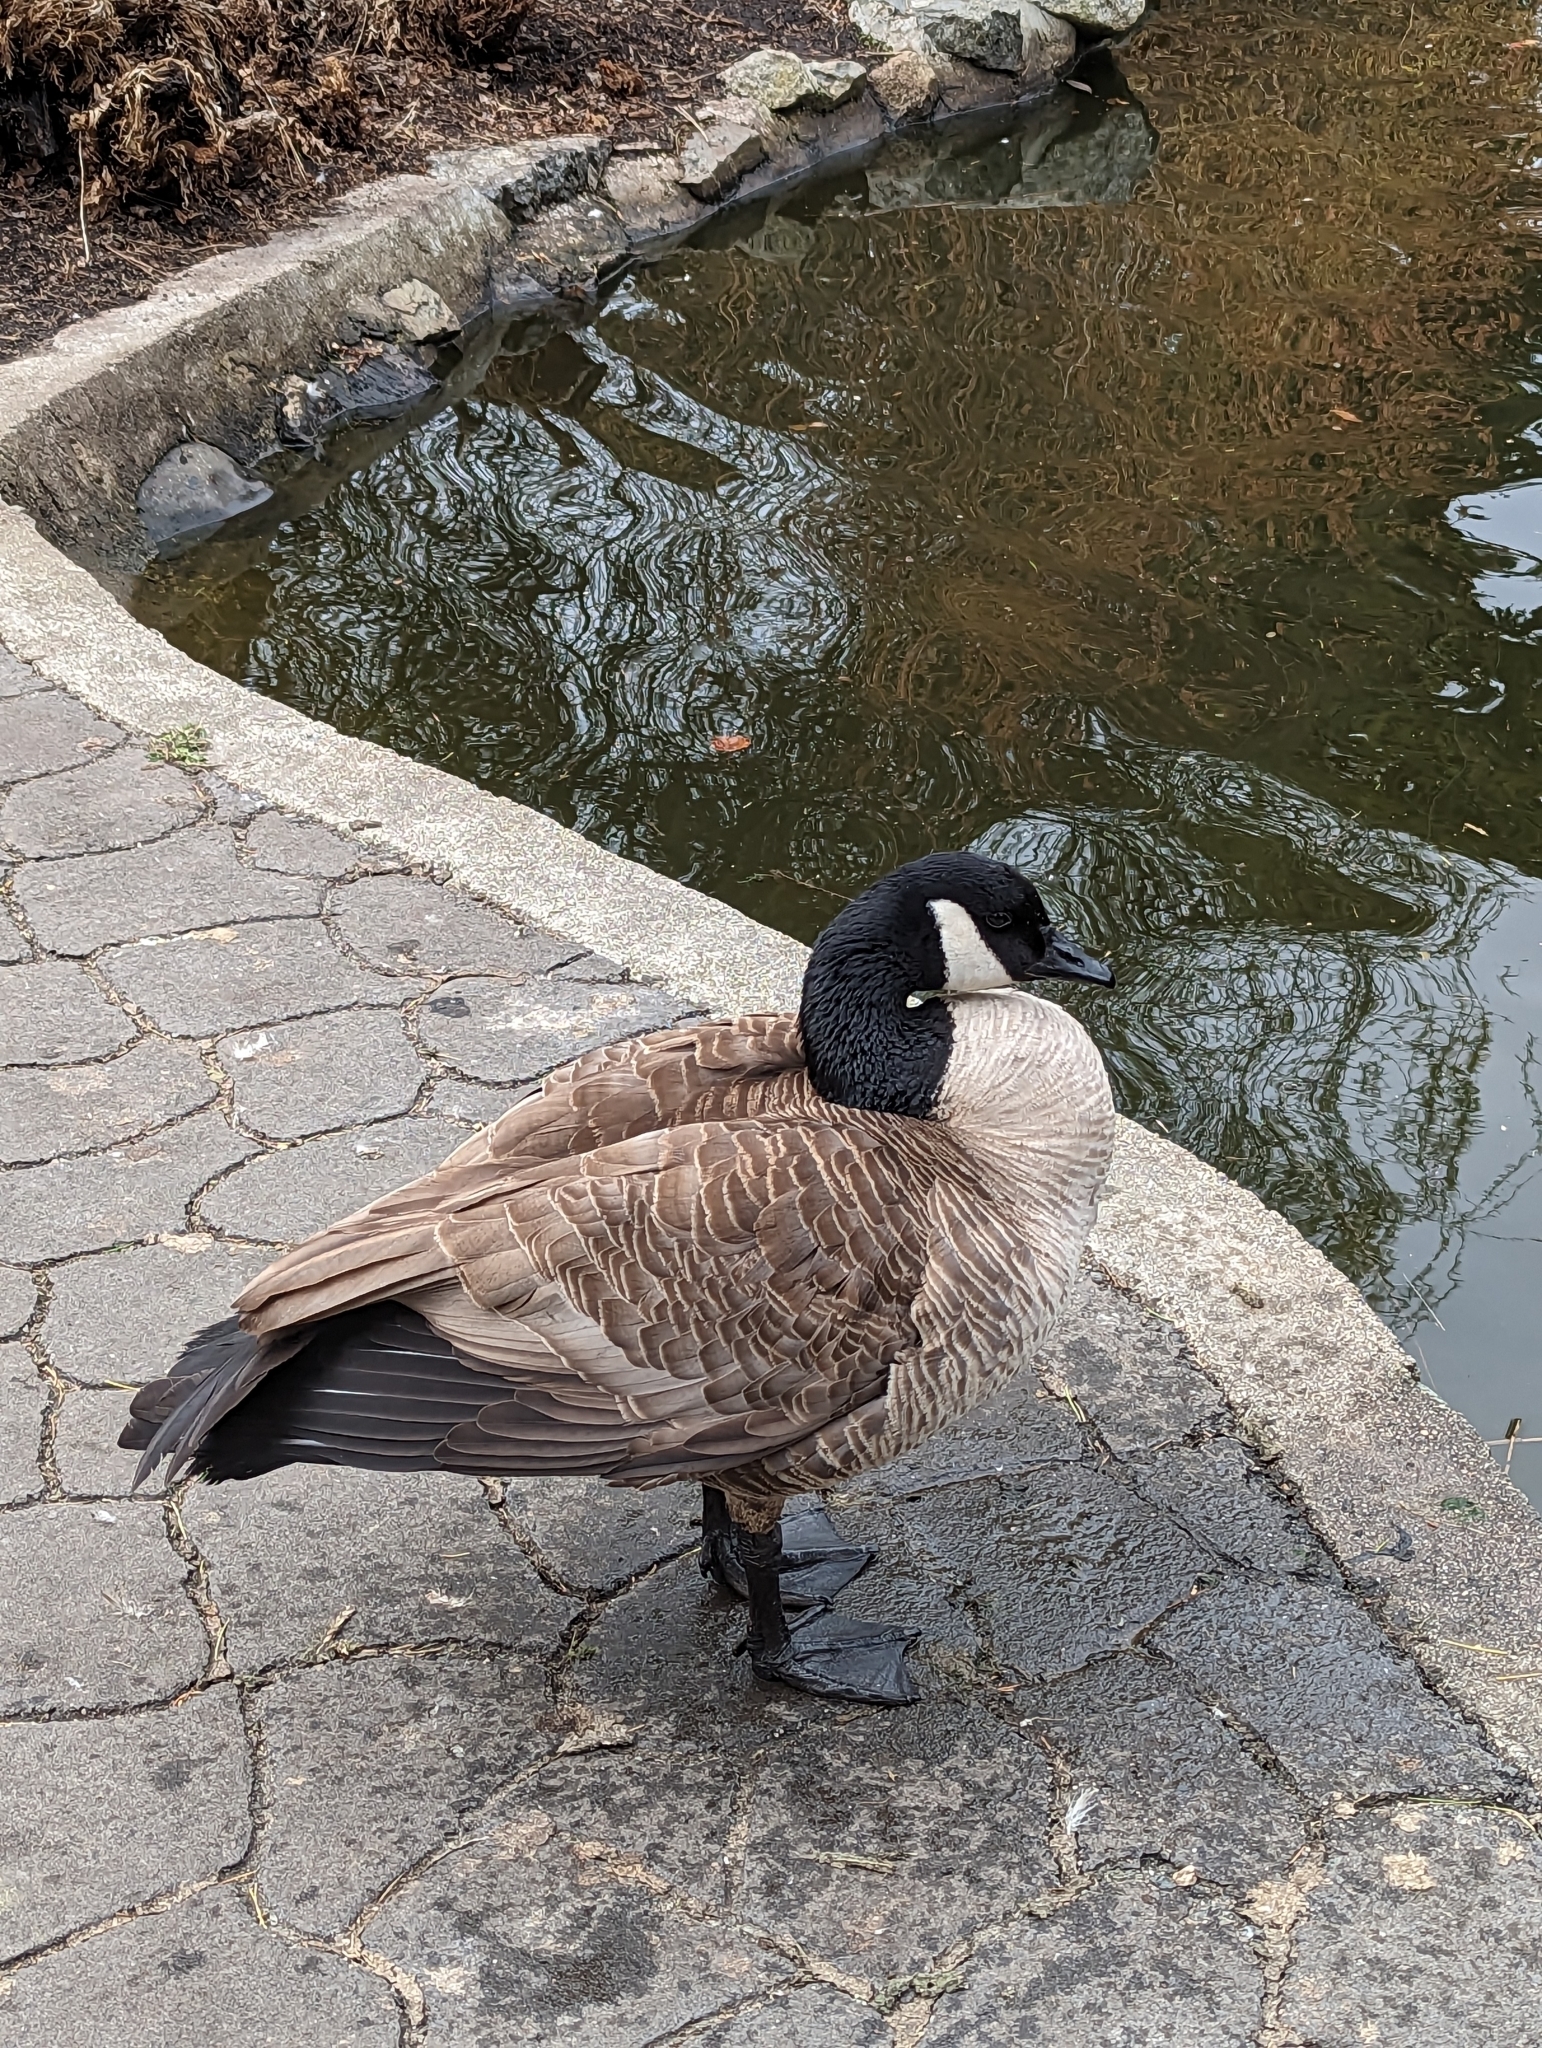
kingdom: Animalia
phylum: Chordata
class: Aves
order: Anseriformes
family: Anatidae
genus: Branta
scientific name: Branta canadensis
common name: Canada goose
